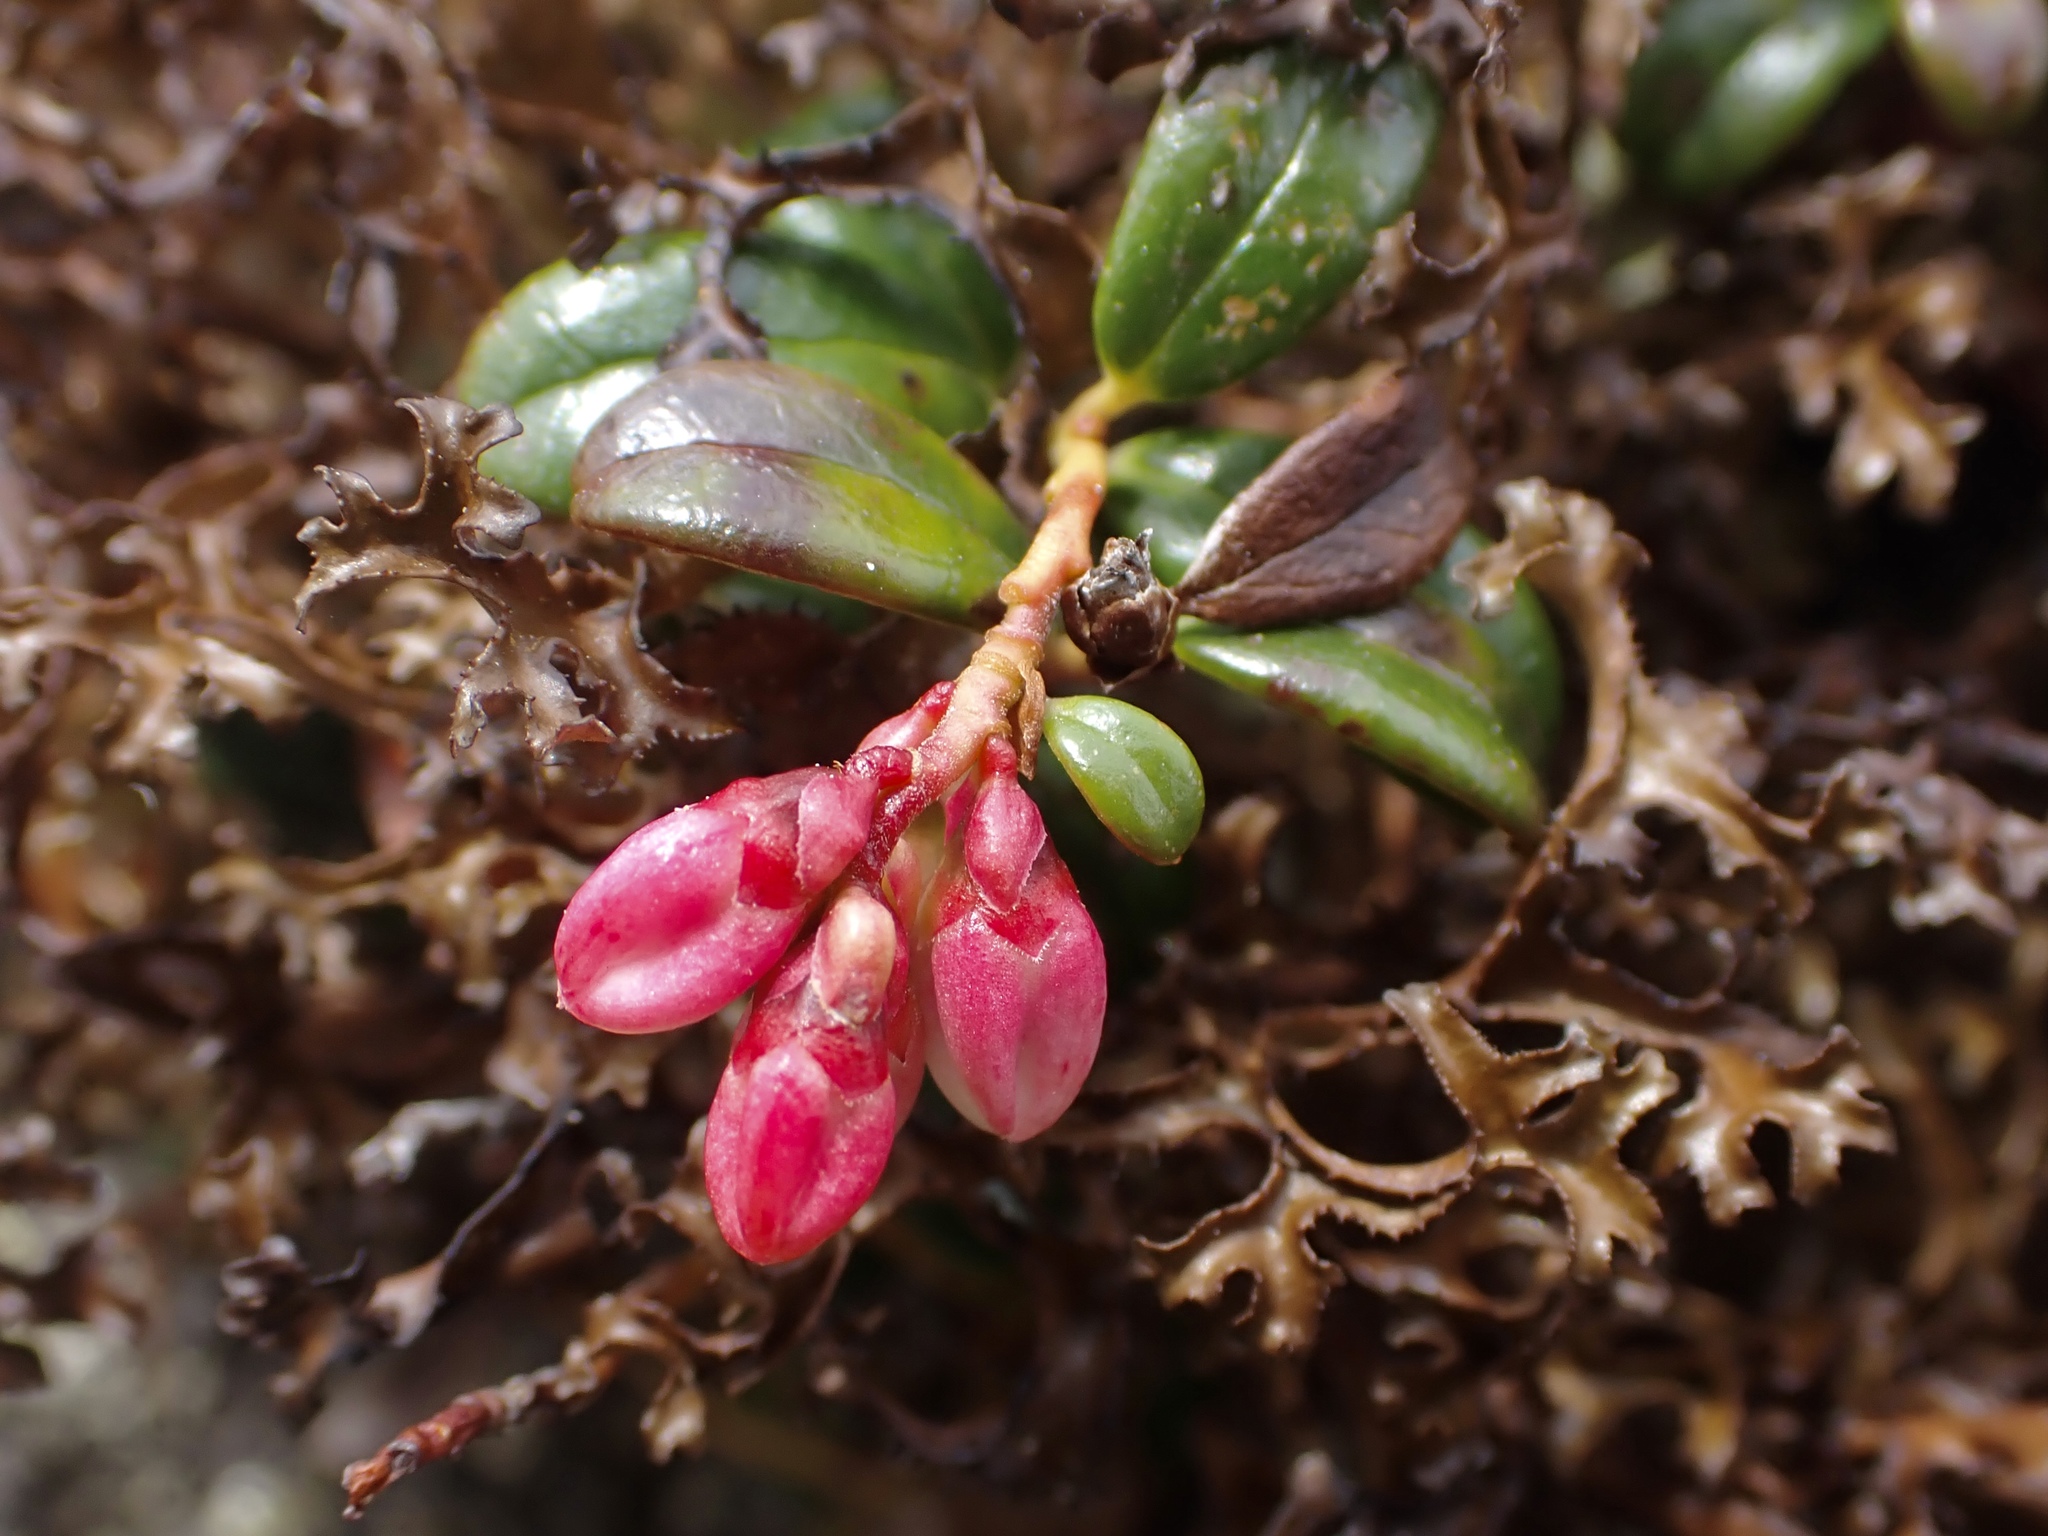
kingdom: Plantae
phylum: Tracheophyta
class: Magnoliopsida
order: Ericales
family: Ericaceae
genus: Vaccinium
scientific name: Vaccinium vitis-idaea
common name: Cowberry
